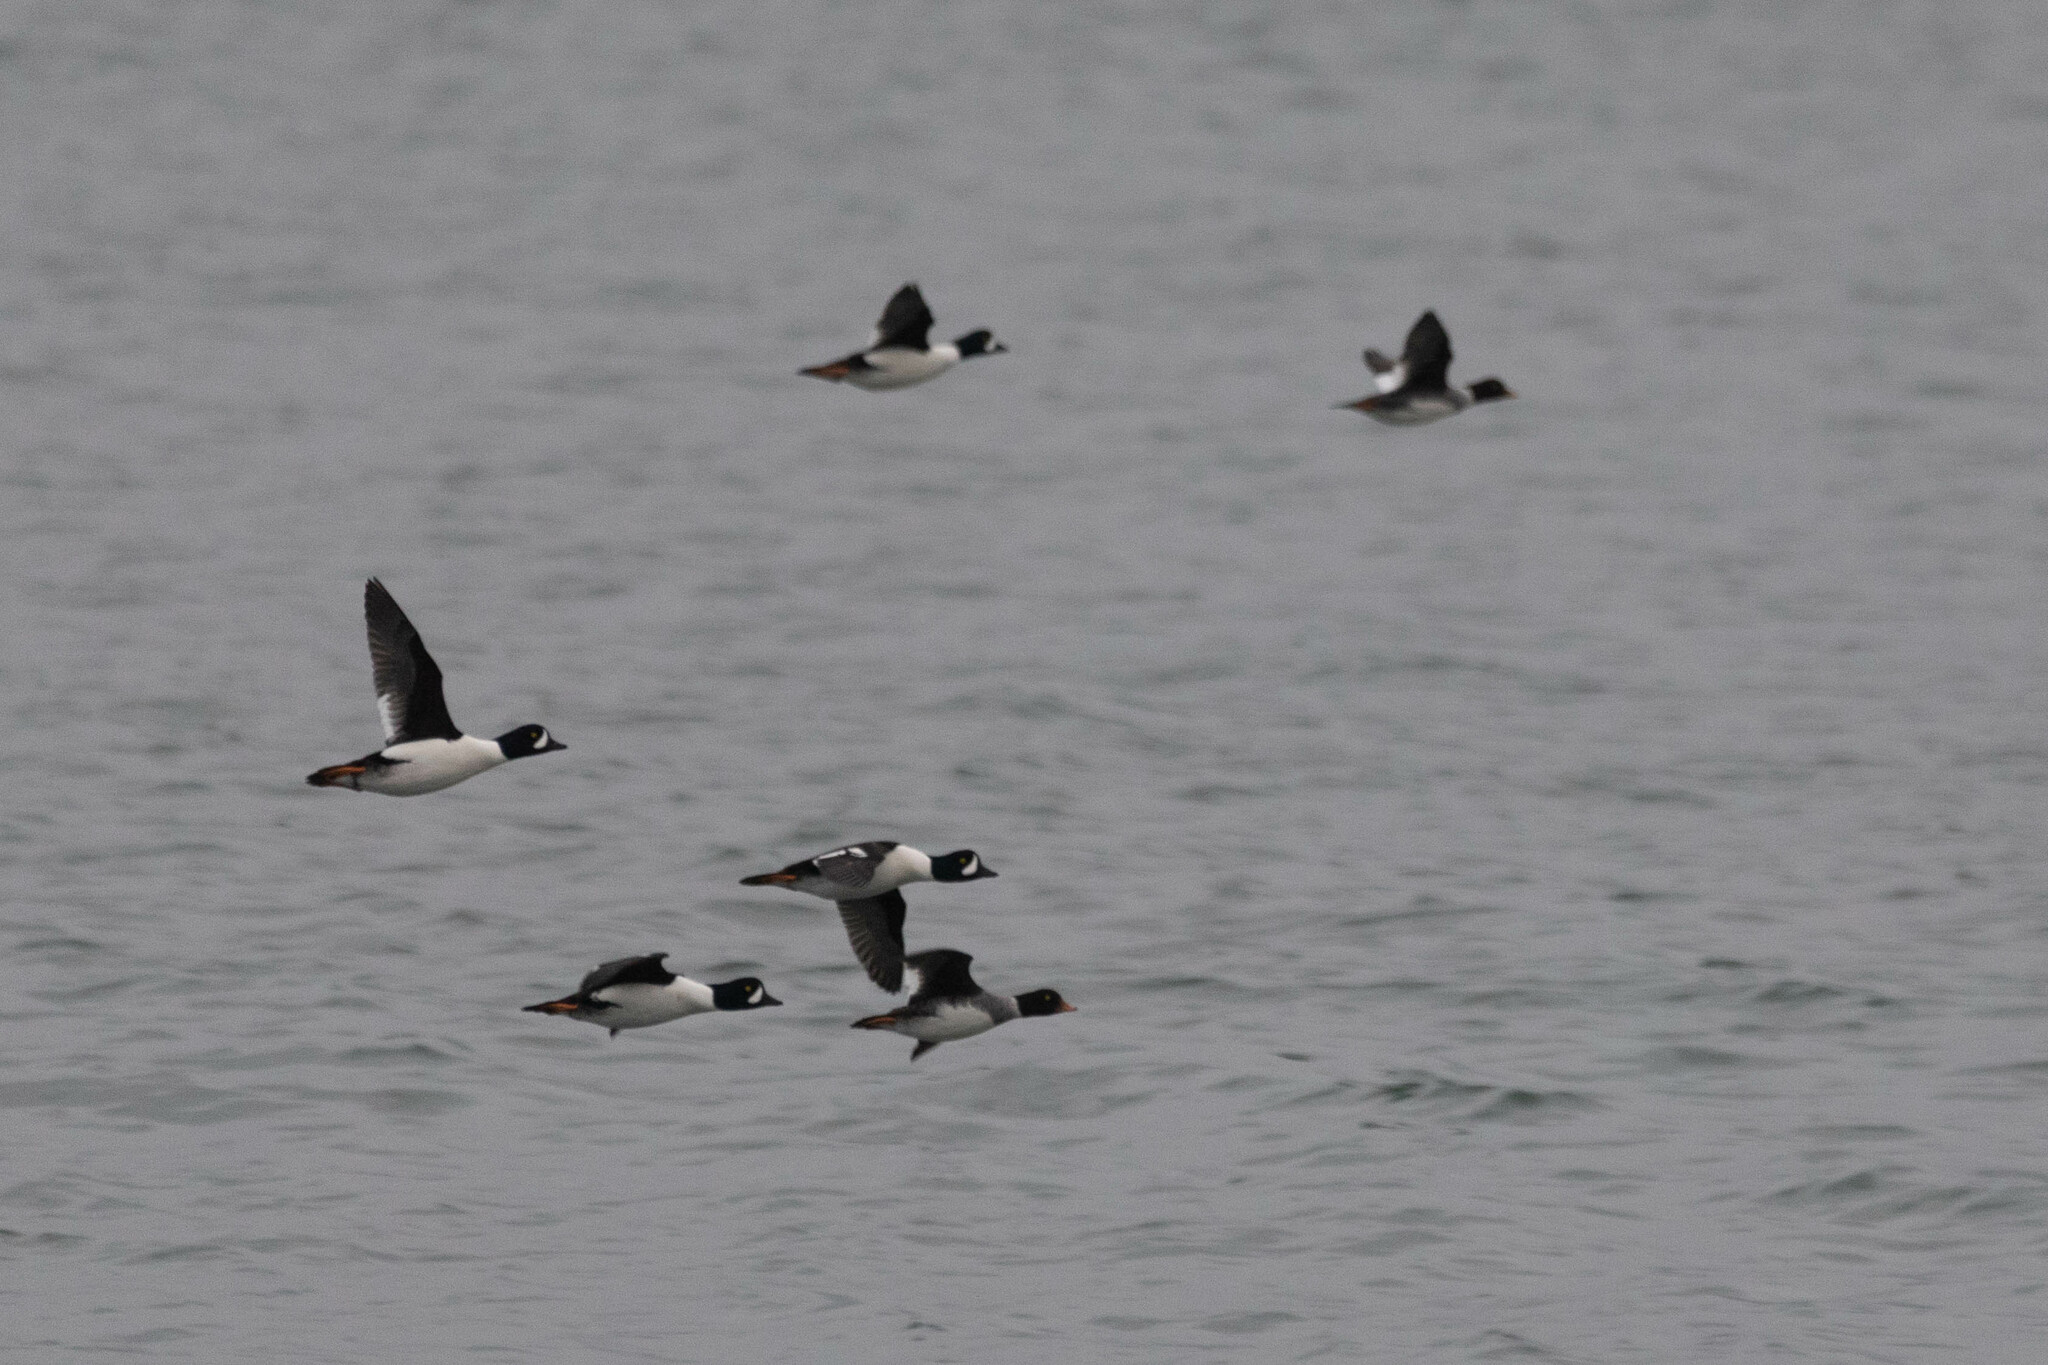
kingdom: Animalia
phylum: Chordata
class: Aves
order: Anseriformes
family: Anatidae
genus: Bucephala
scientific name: Bucephala islandica
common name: Barrow's goldeneye
